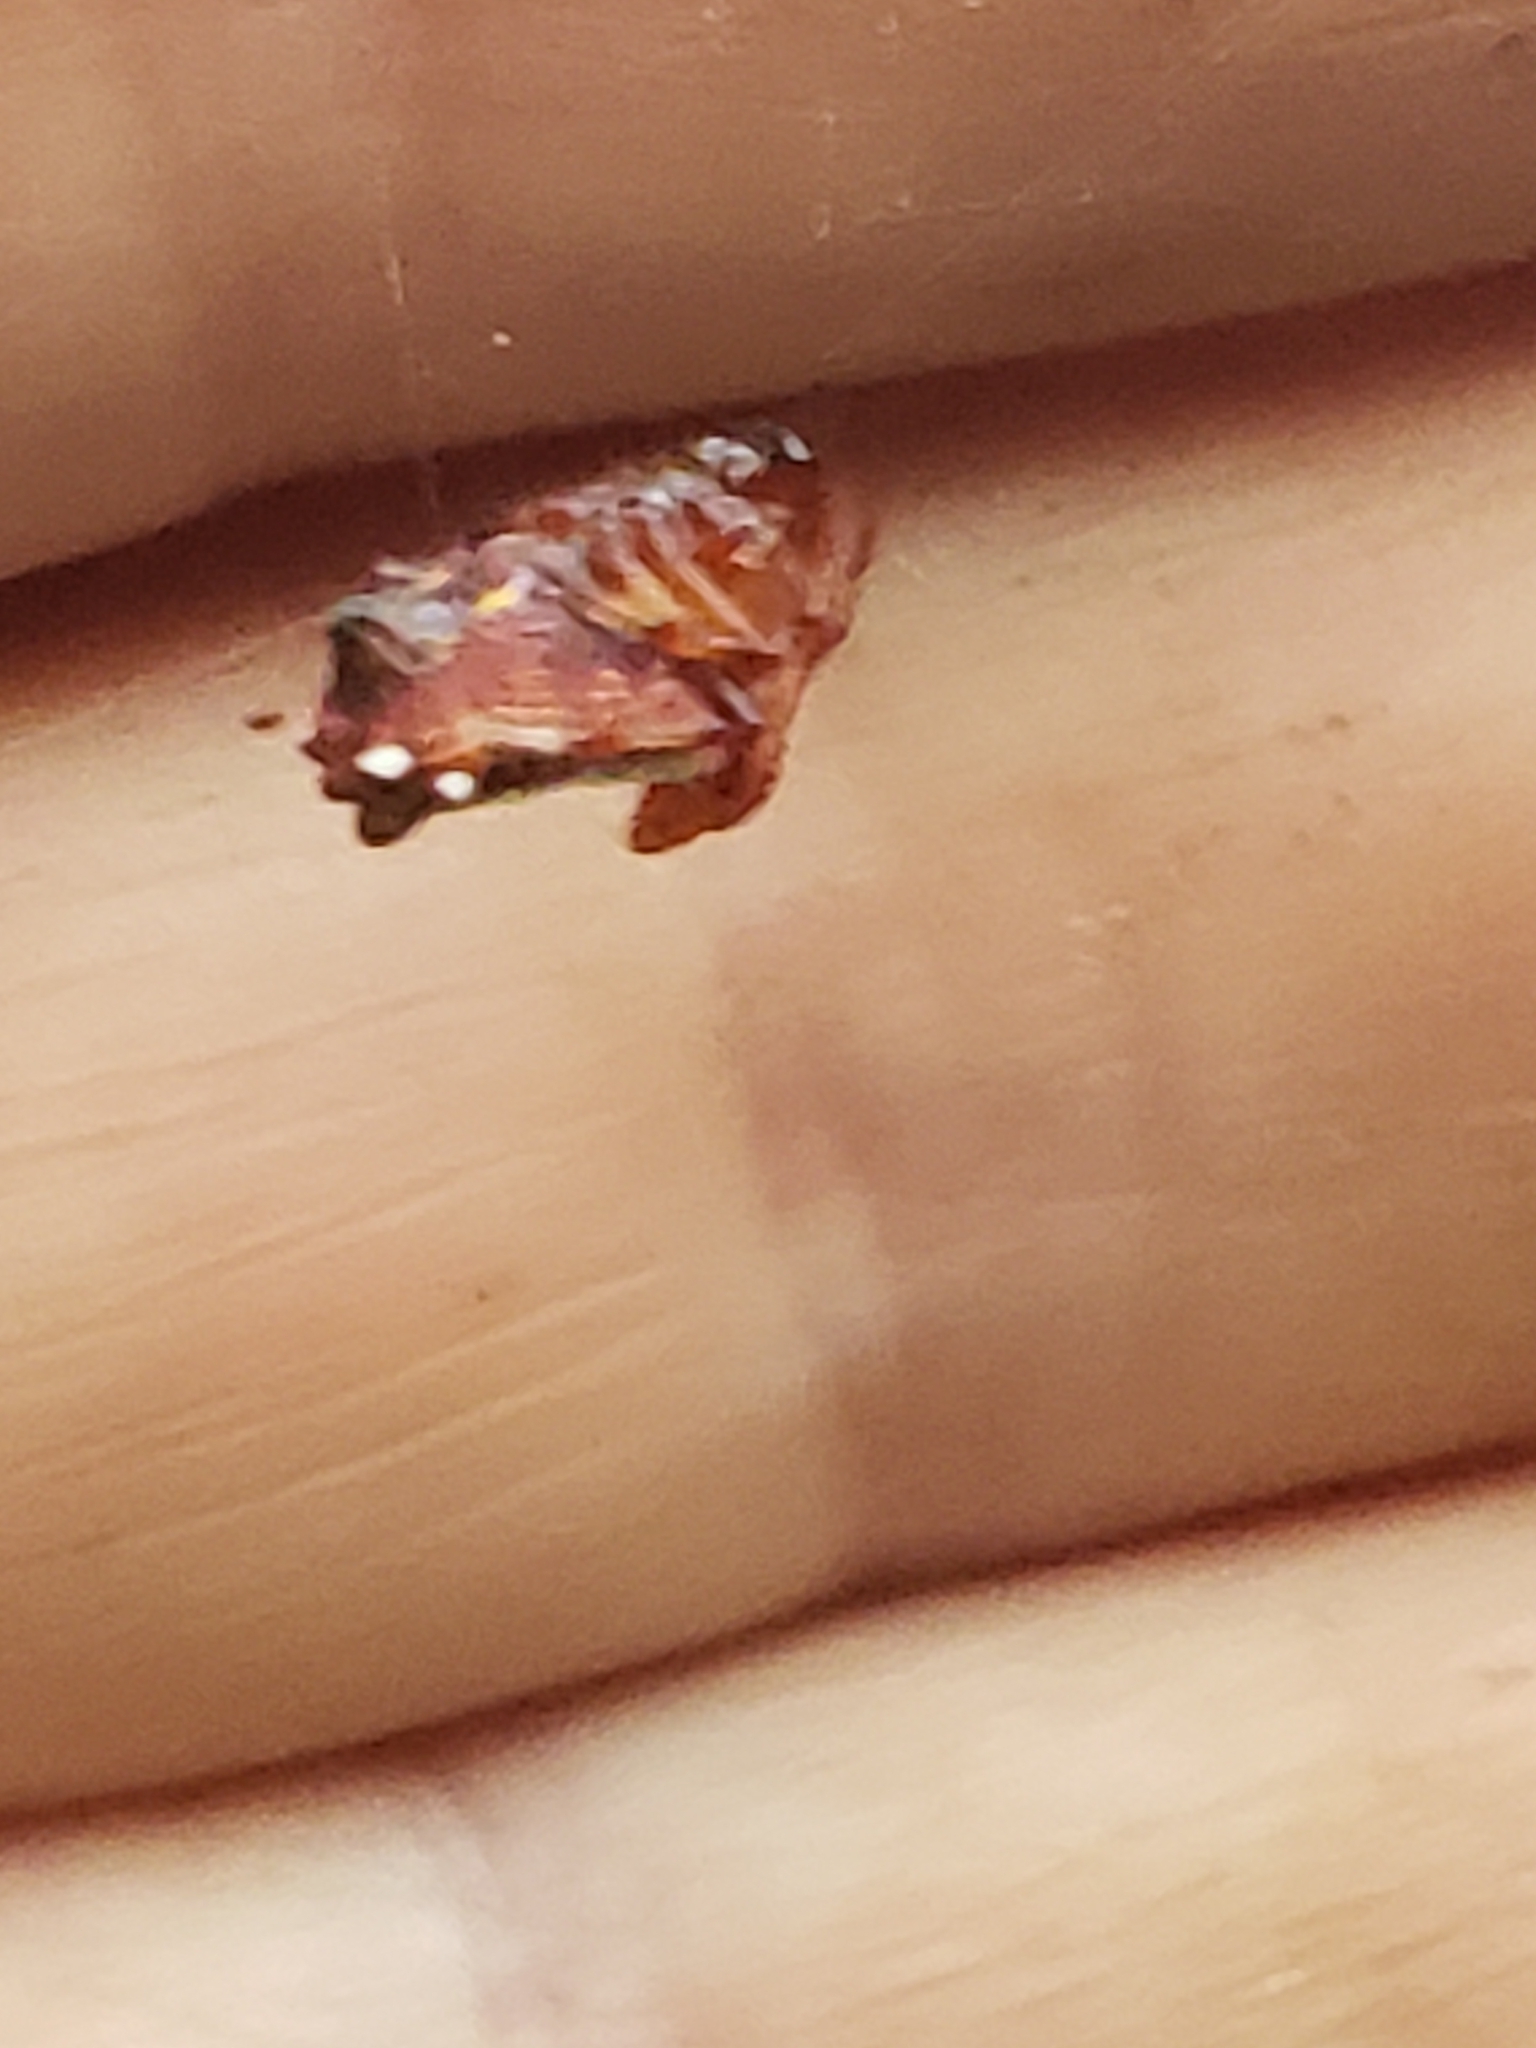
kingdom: Animalia
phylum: Arthropoda
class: Arachnida
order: Araneae
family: Araneidae
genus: Verrucosa
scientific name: Verrucosa arenata
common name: Orb weavers
